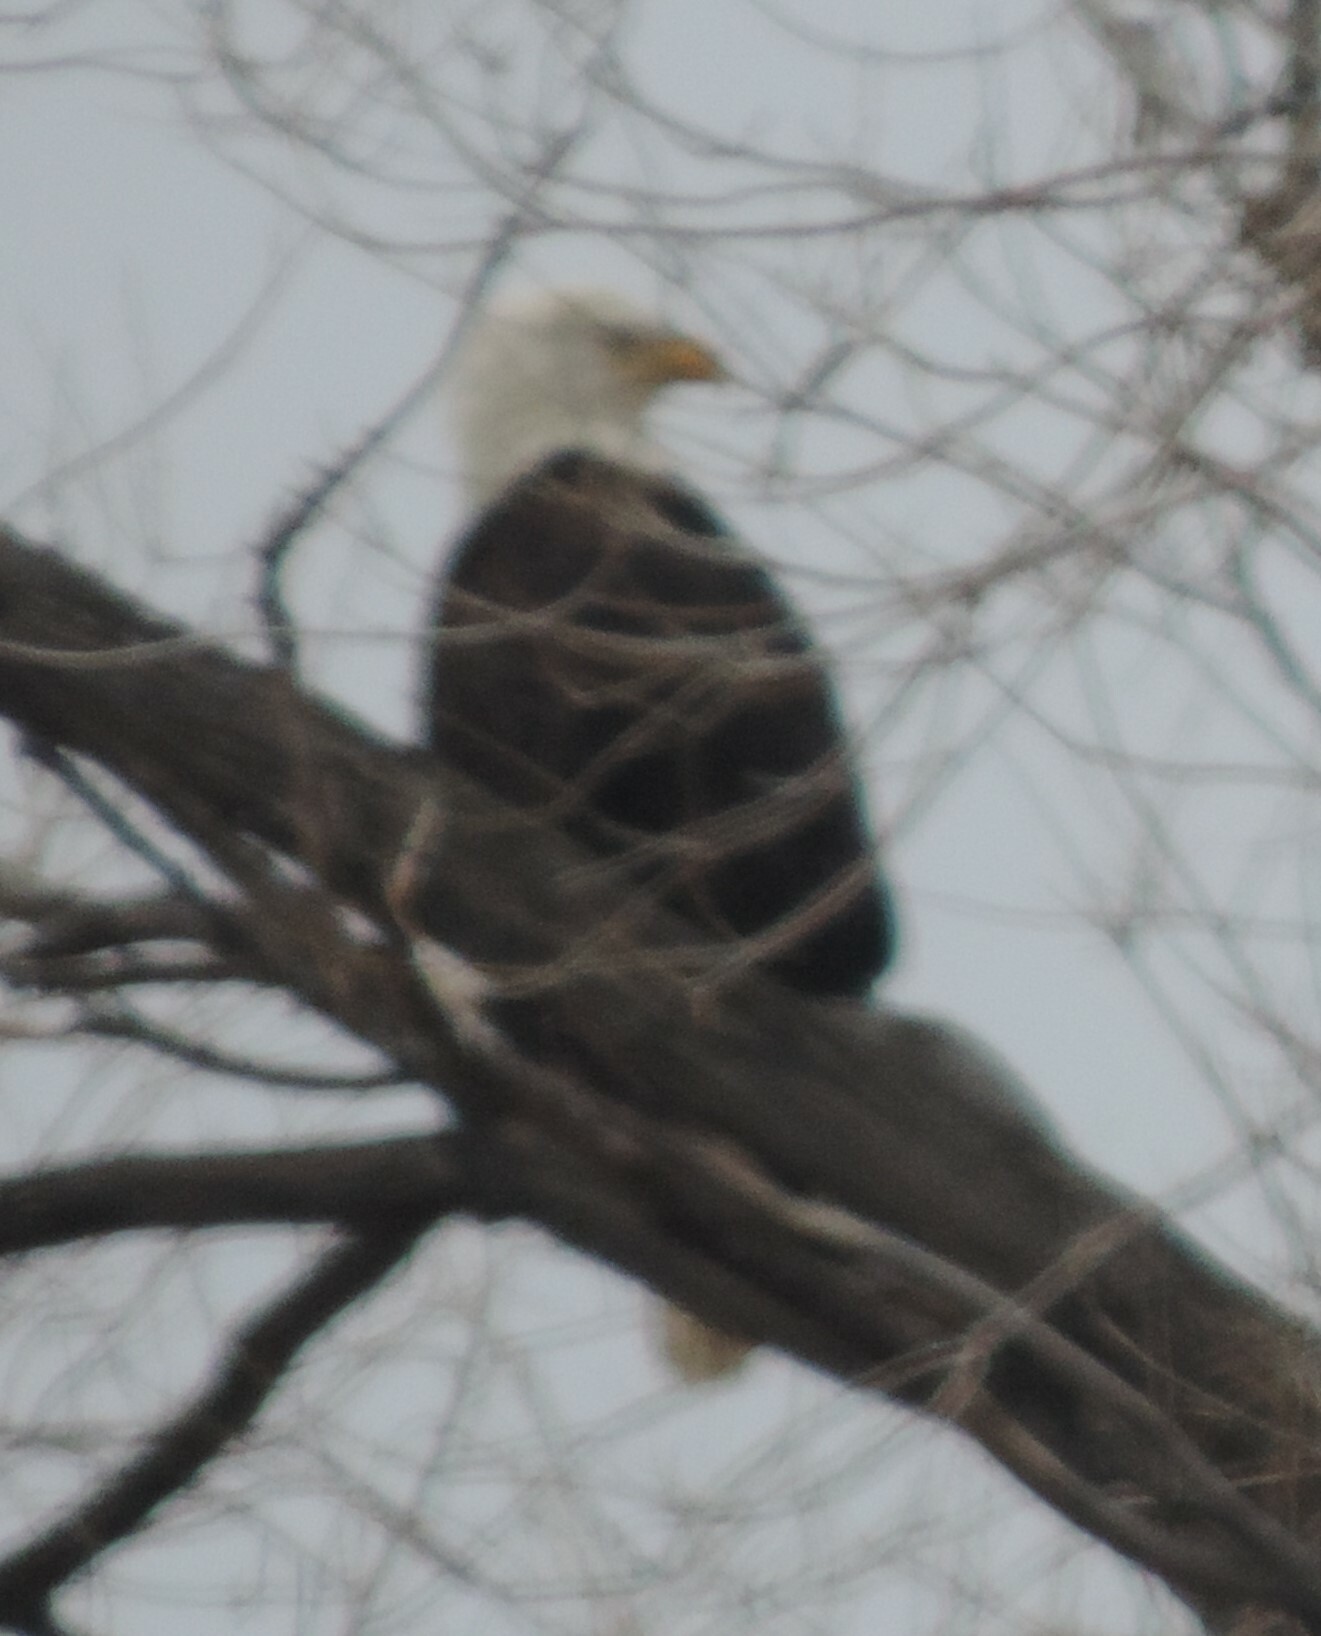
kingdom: Animalia
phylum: Chordata
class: Aves
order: Accipitriformes
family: Accipitridae
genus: Haliaeetus
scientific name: Haliaeetus leucocephalus
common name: Bald eagle
